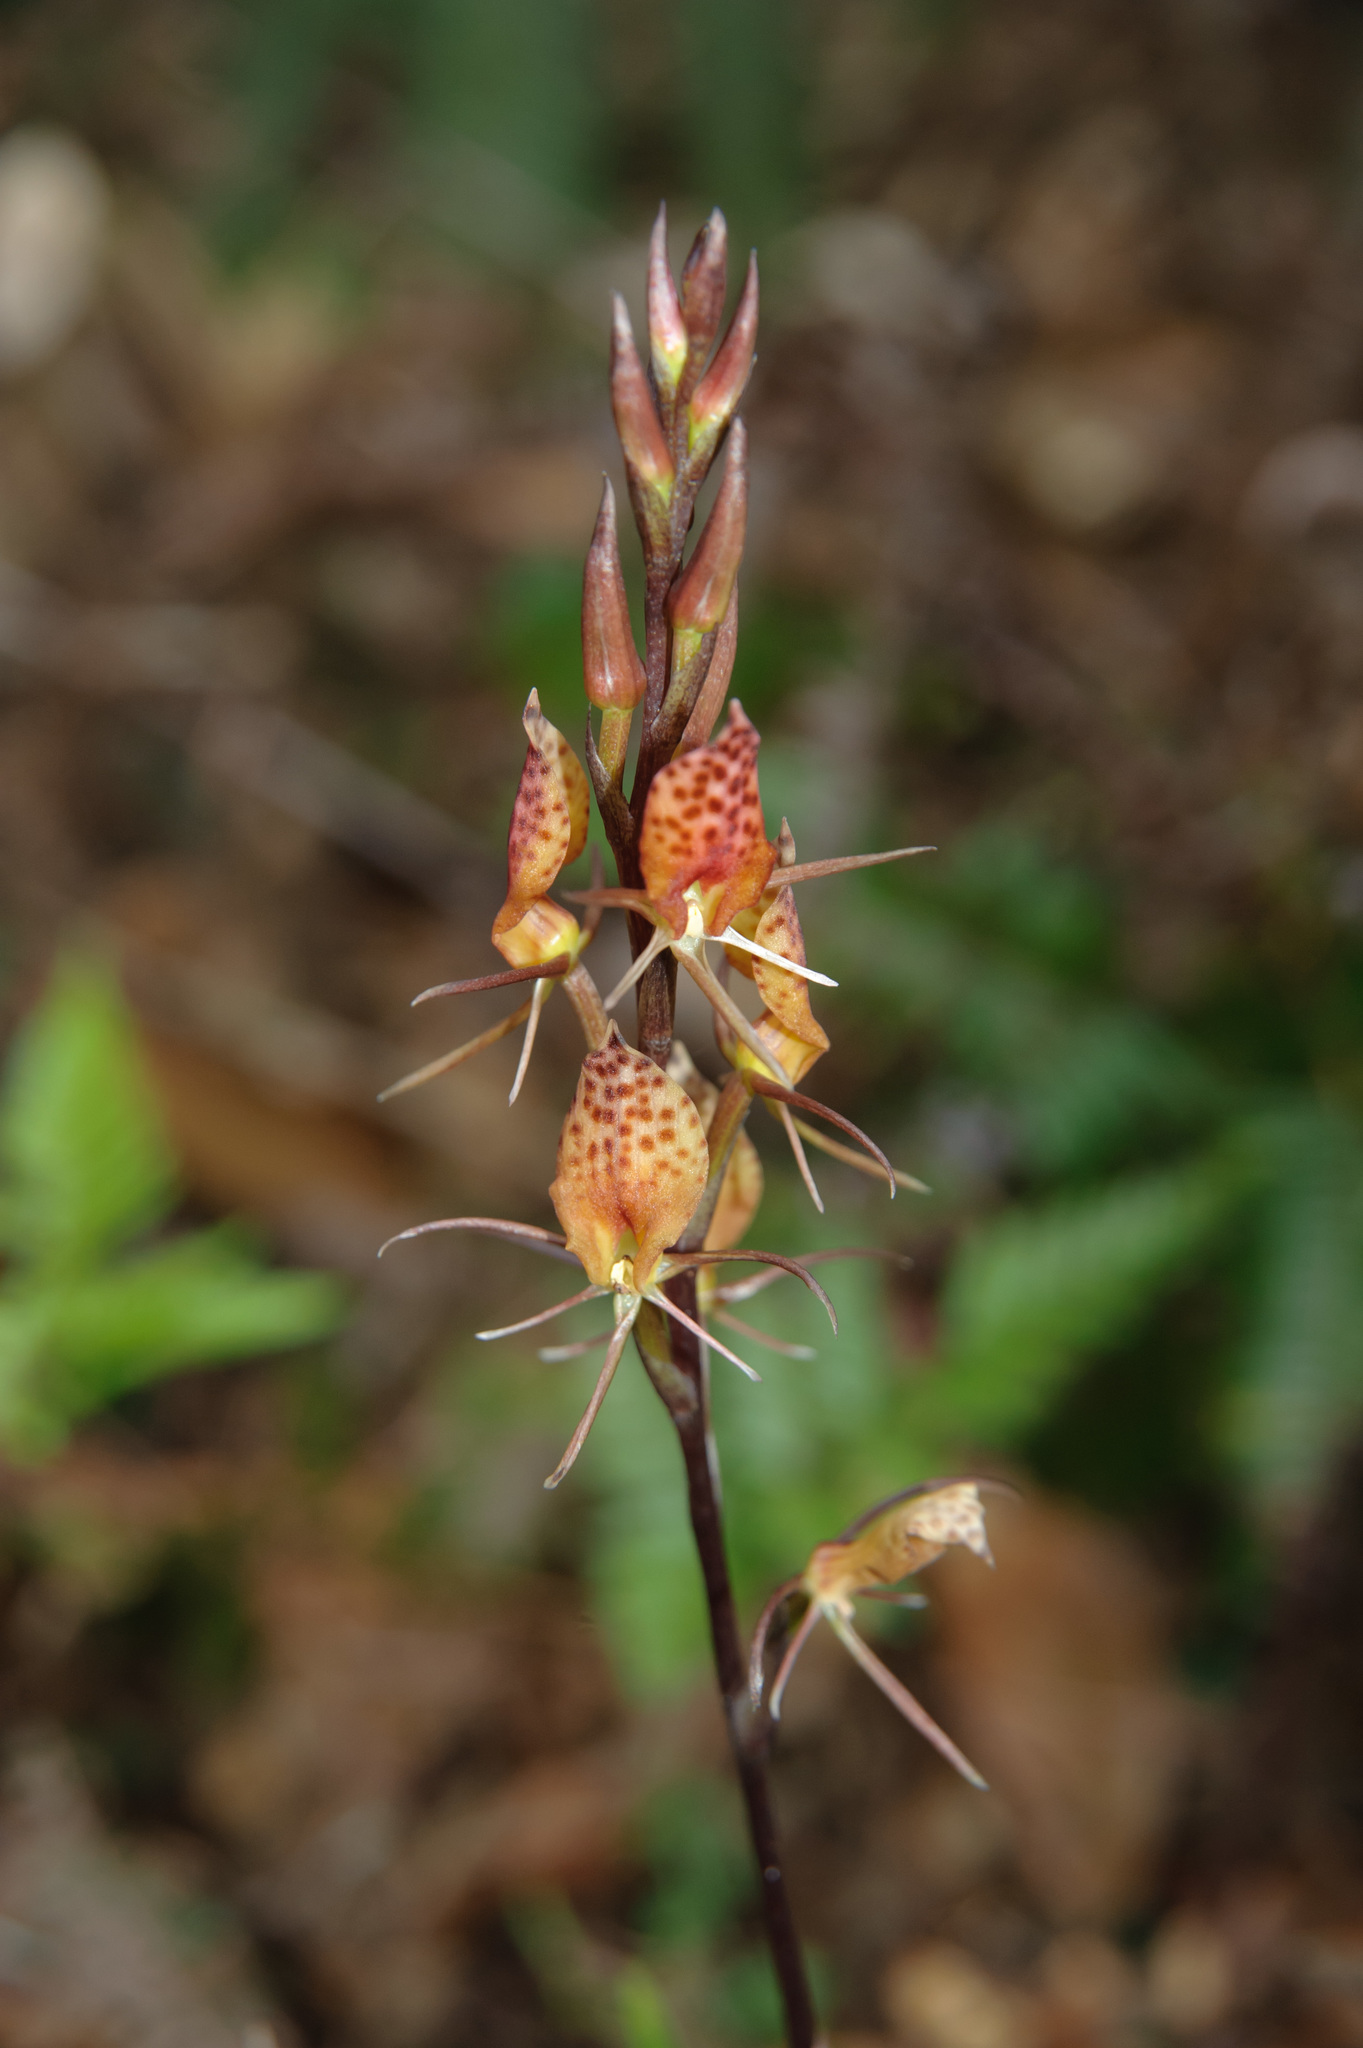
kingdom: Plantae
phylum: Tracheophyta
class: Liliopsida
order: Asparagales
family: Orchidaceae
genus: Cryptostylis
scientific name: Cryptostylis taiwaniana
